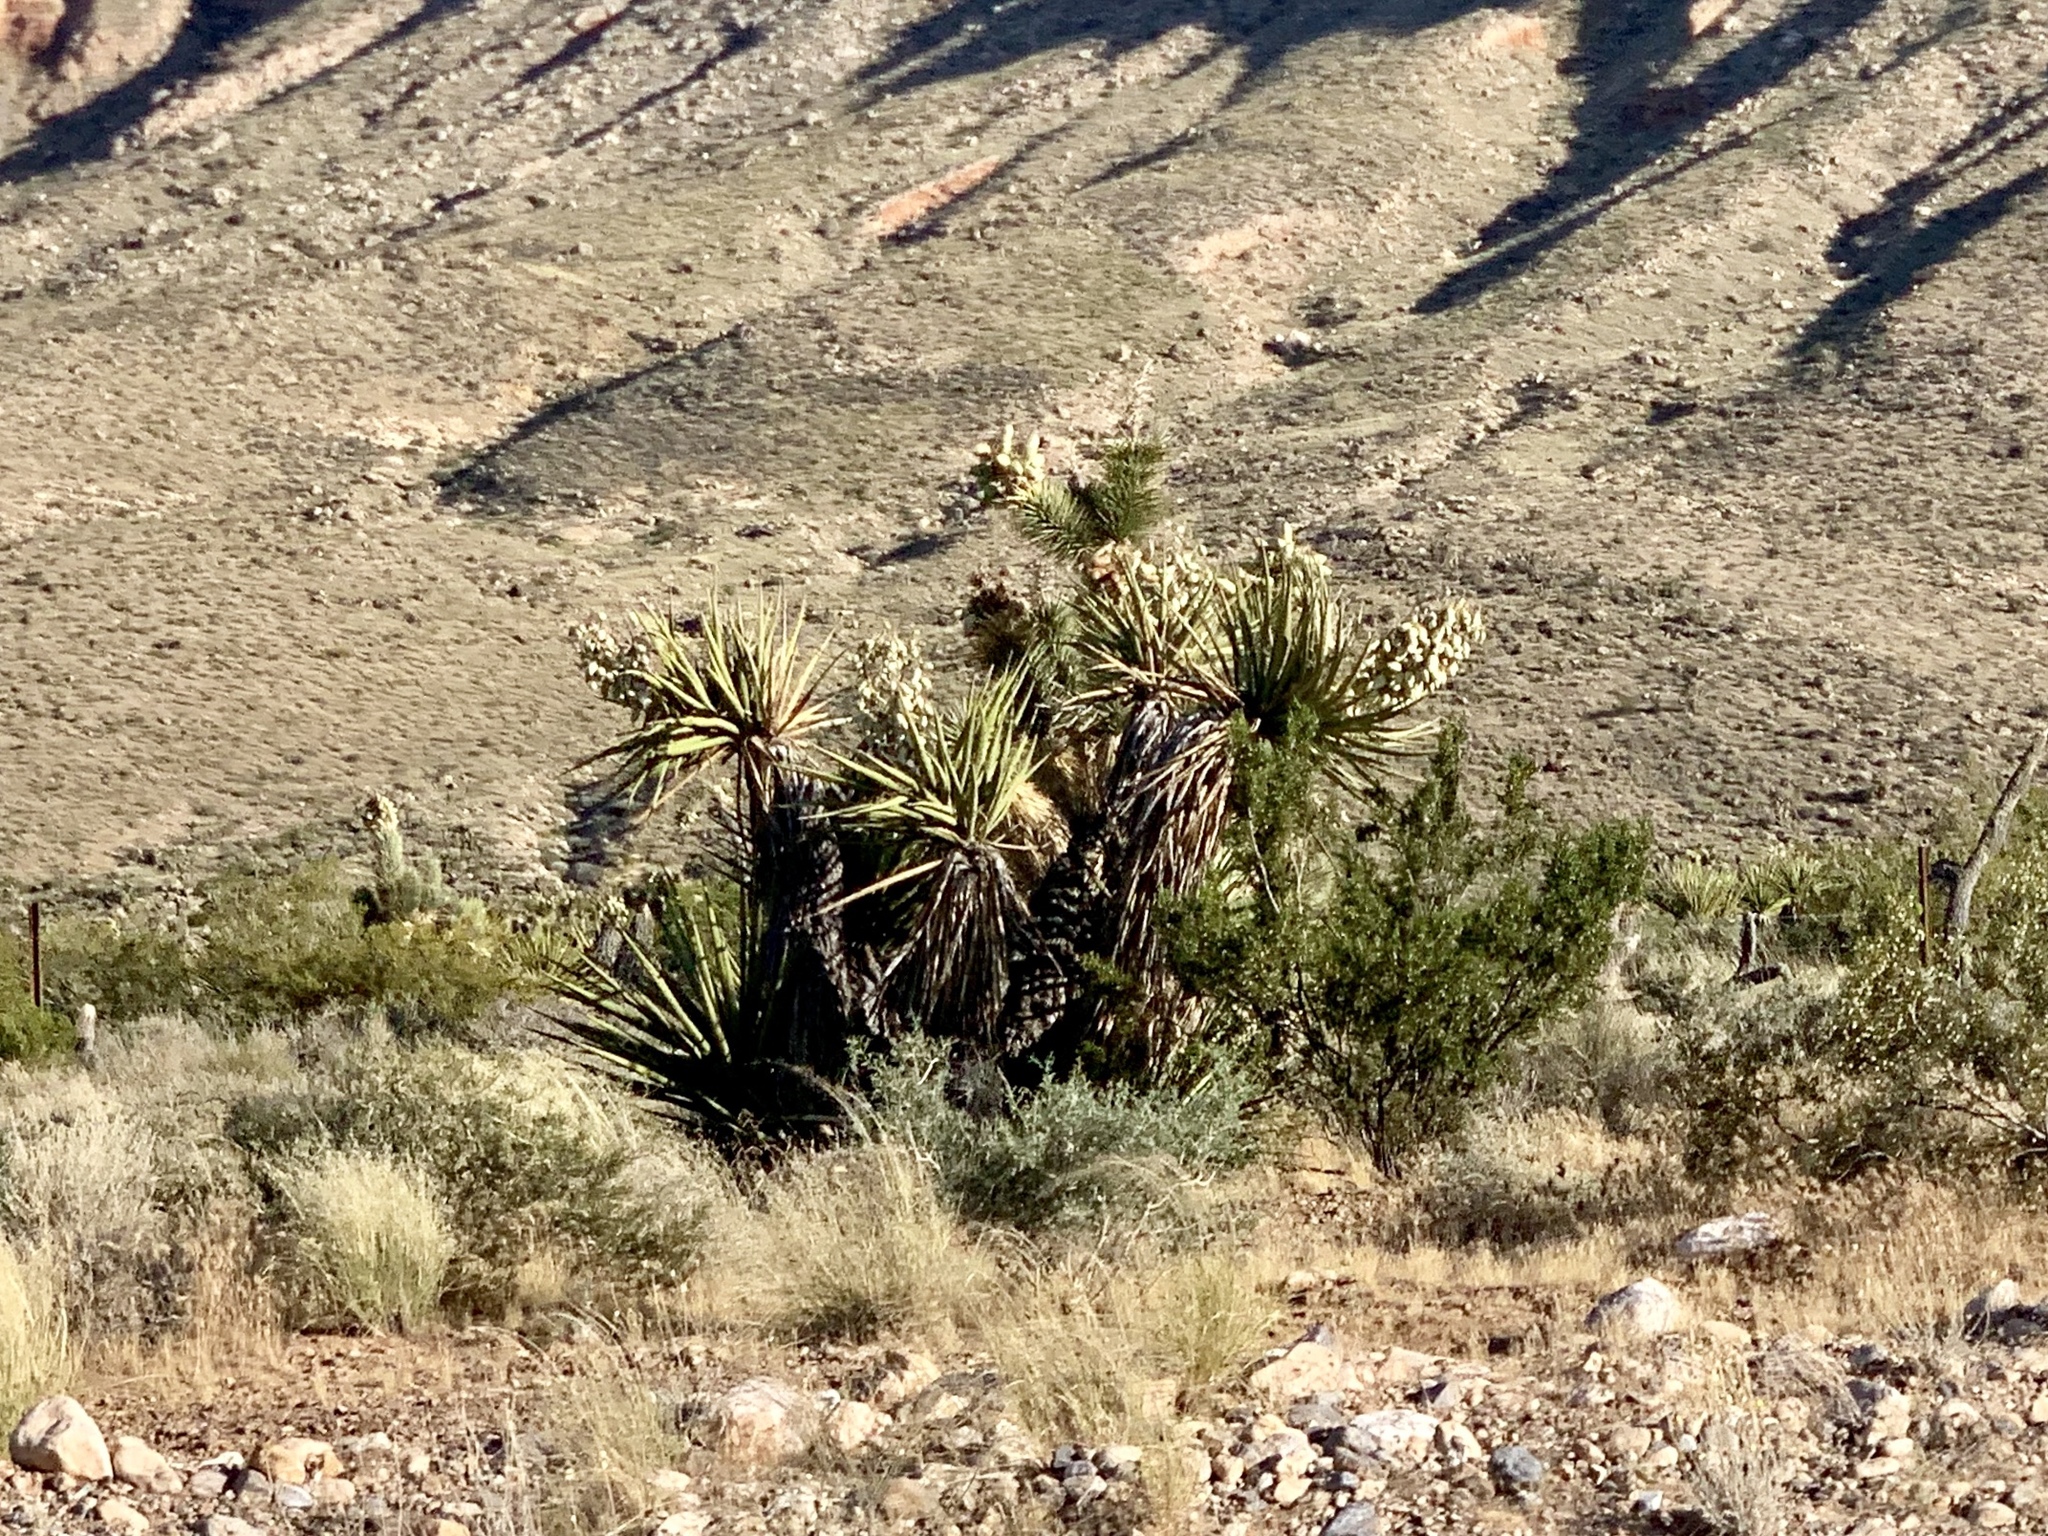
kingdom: Plantae
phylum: Tracheophyta
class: Liliopsida
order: Asparagales
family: Asparagaceae
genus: Yucca
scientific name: Yucca schidigera
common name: Mojave yucca
